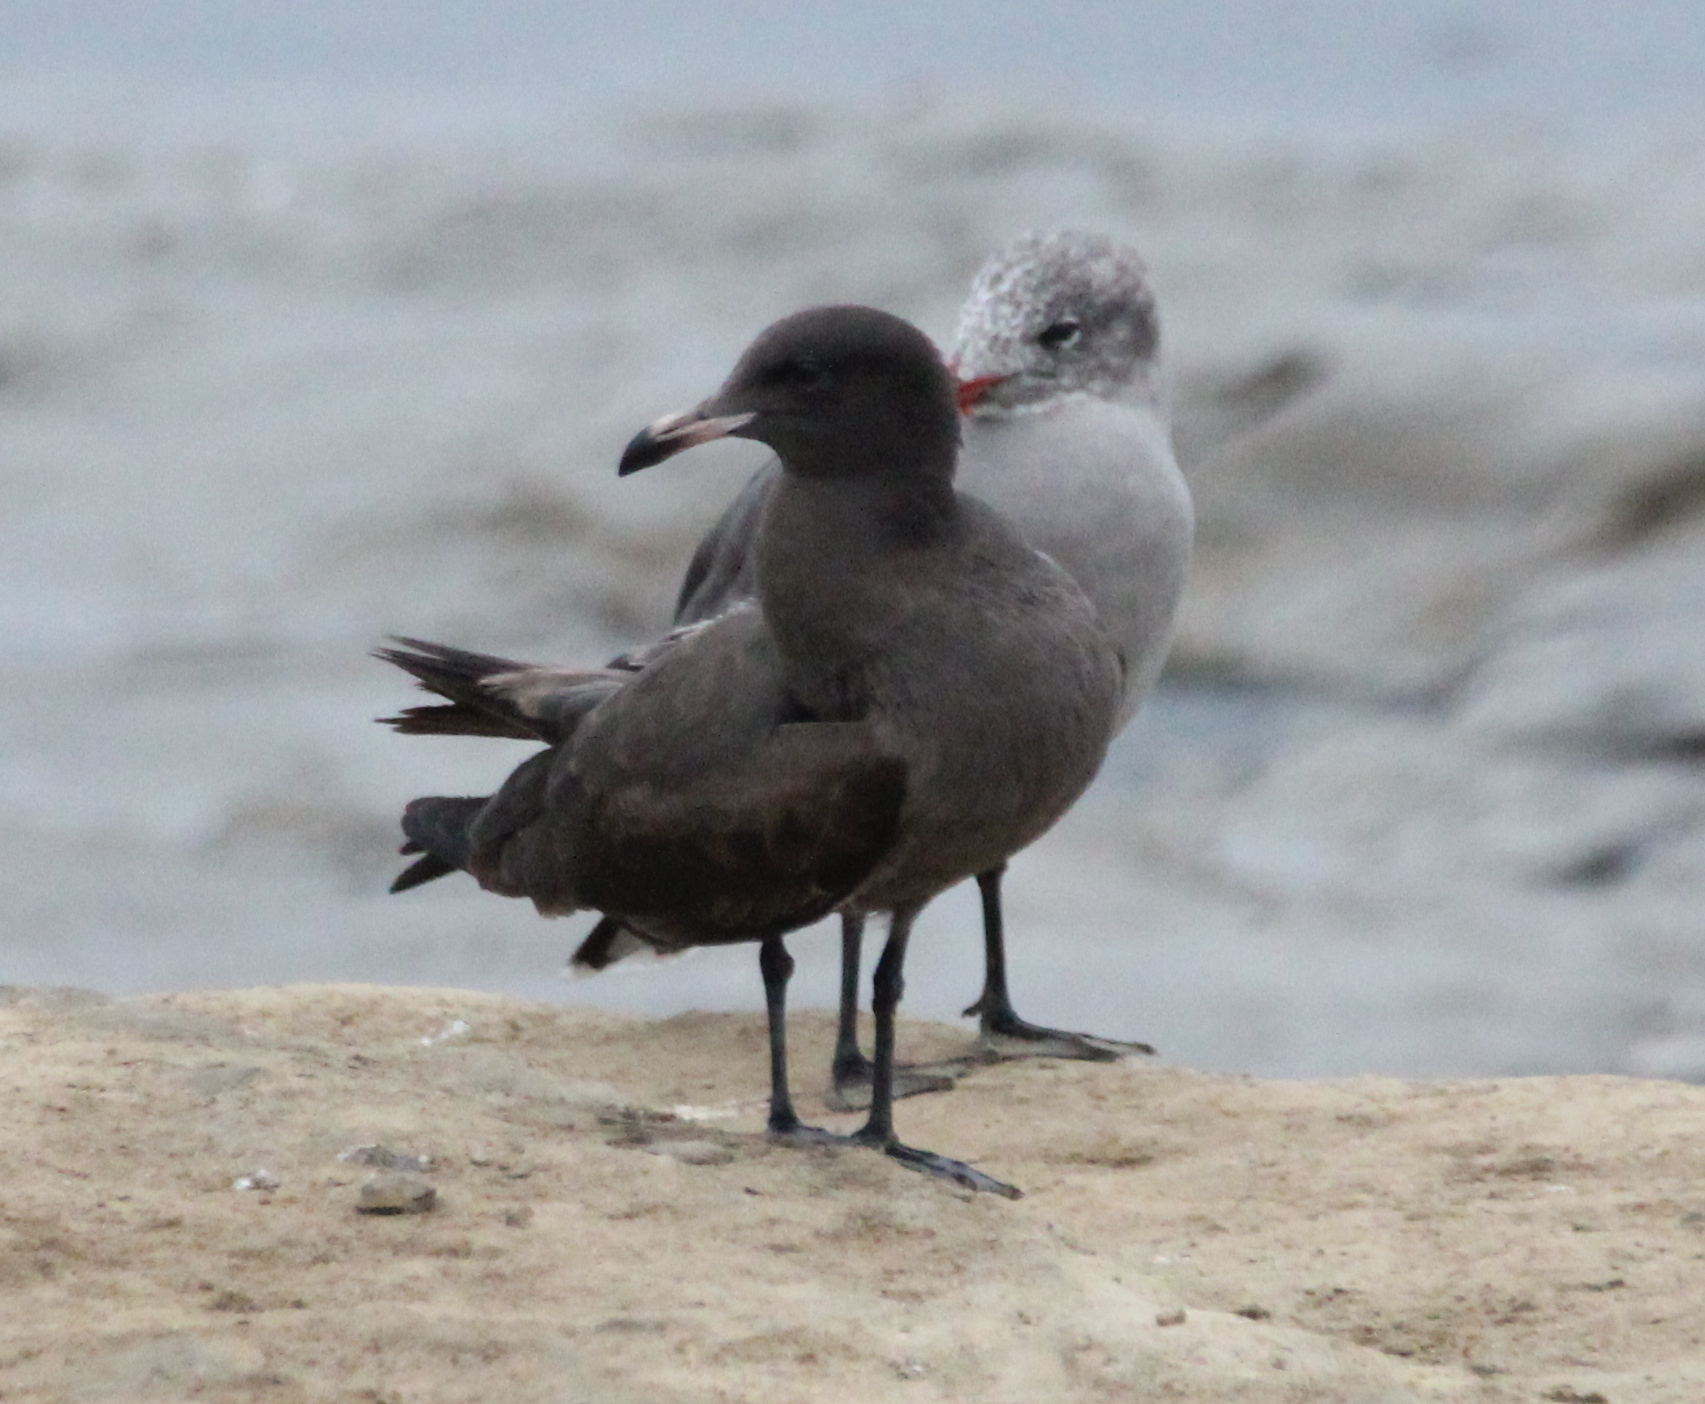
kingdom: Animalia
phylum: Chordata
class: Aves
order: Charadriiformes
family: Laridae
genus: Larus
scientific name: Larus heermanni
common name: Heermann's gull
